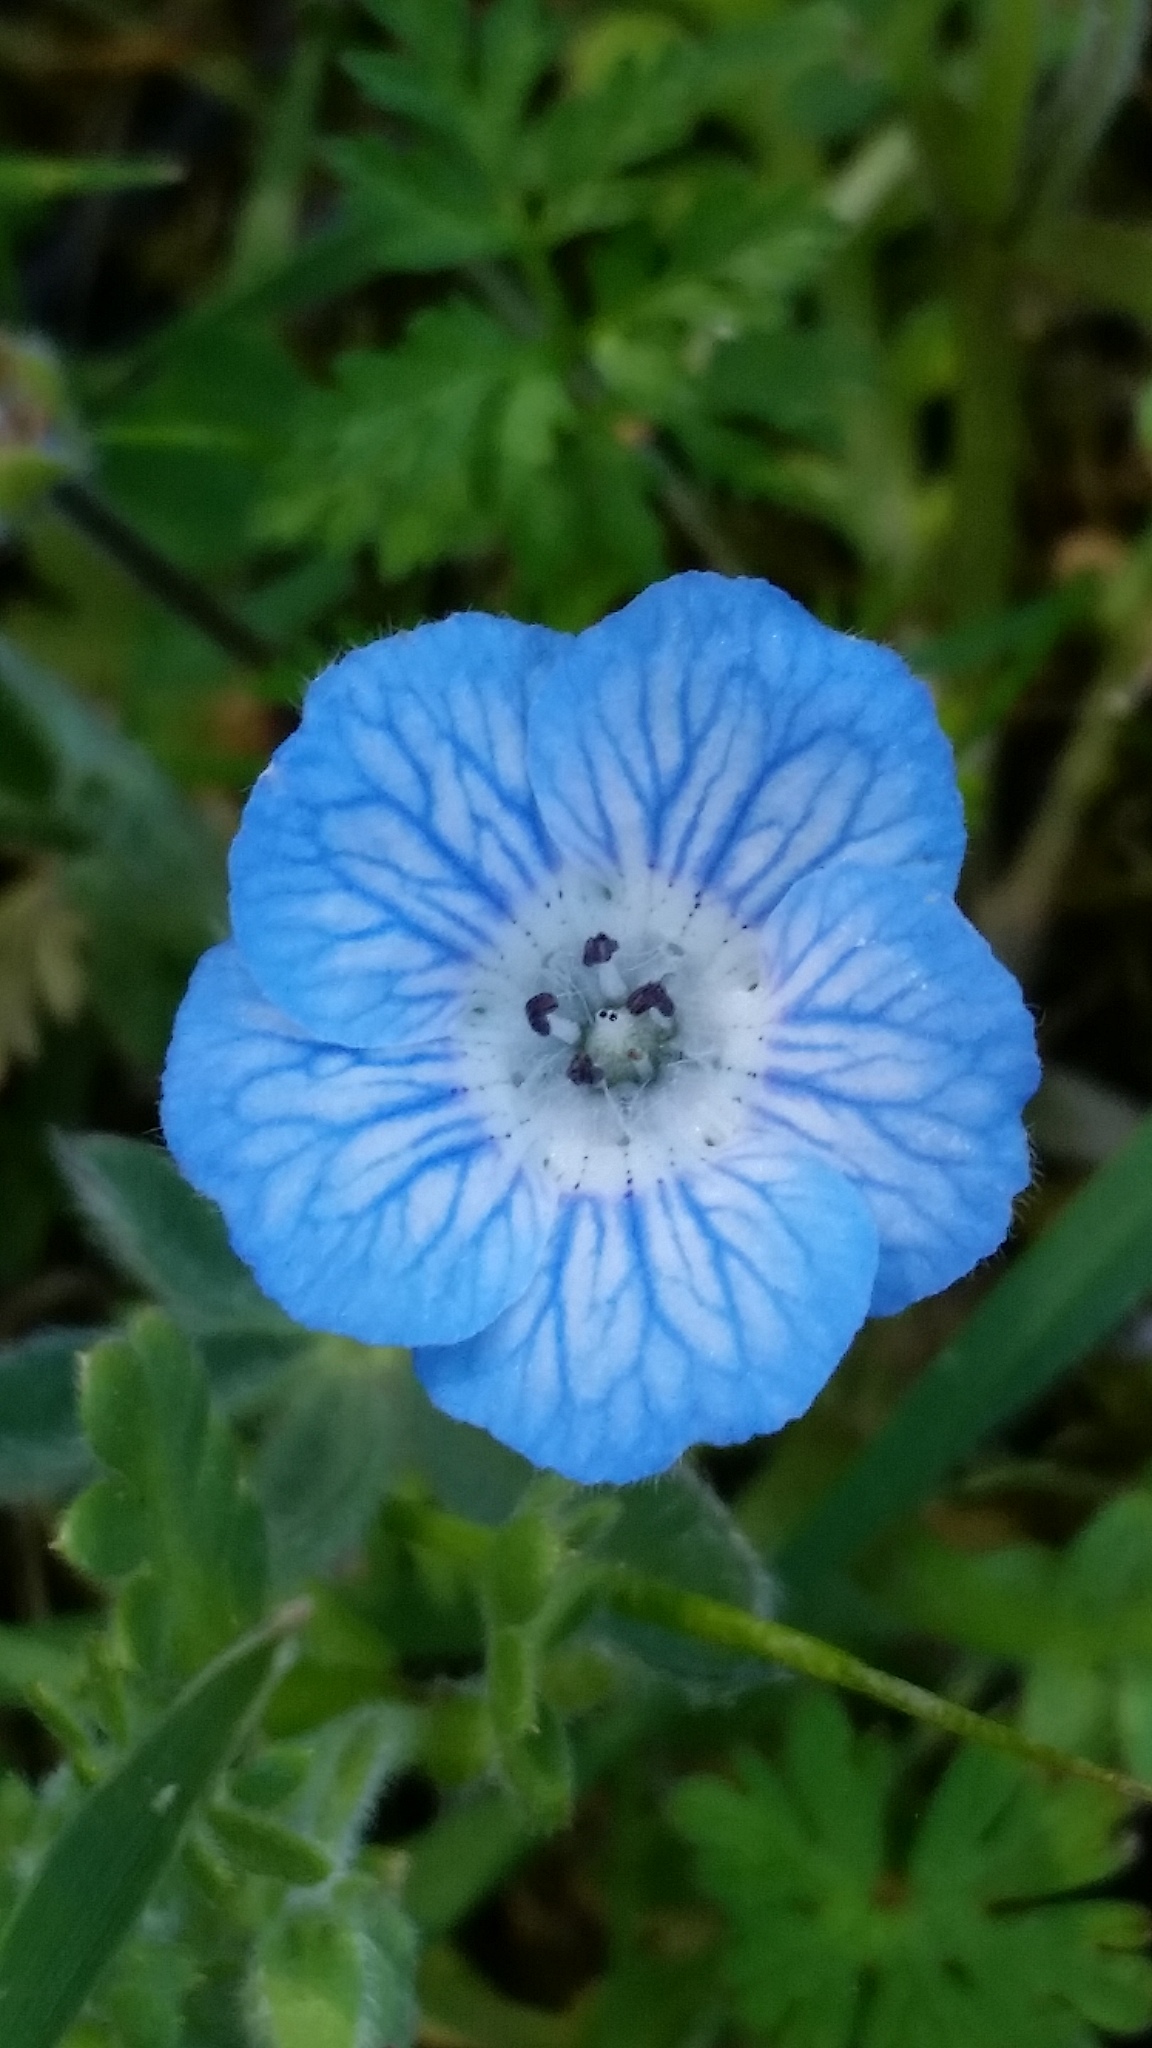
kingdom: Plantae
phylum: Tracheophyta
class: Magnoliopsida
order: Boraginales
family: Hydrophyllaceae
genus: Nemophila
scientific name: Nemophila menziesii
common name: Baby's-blue-eyes
